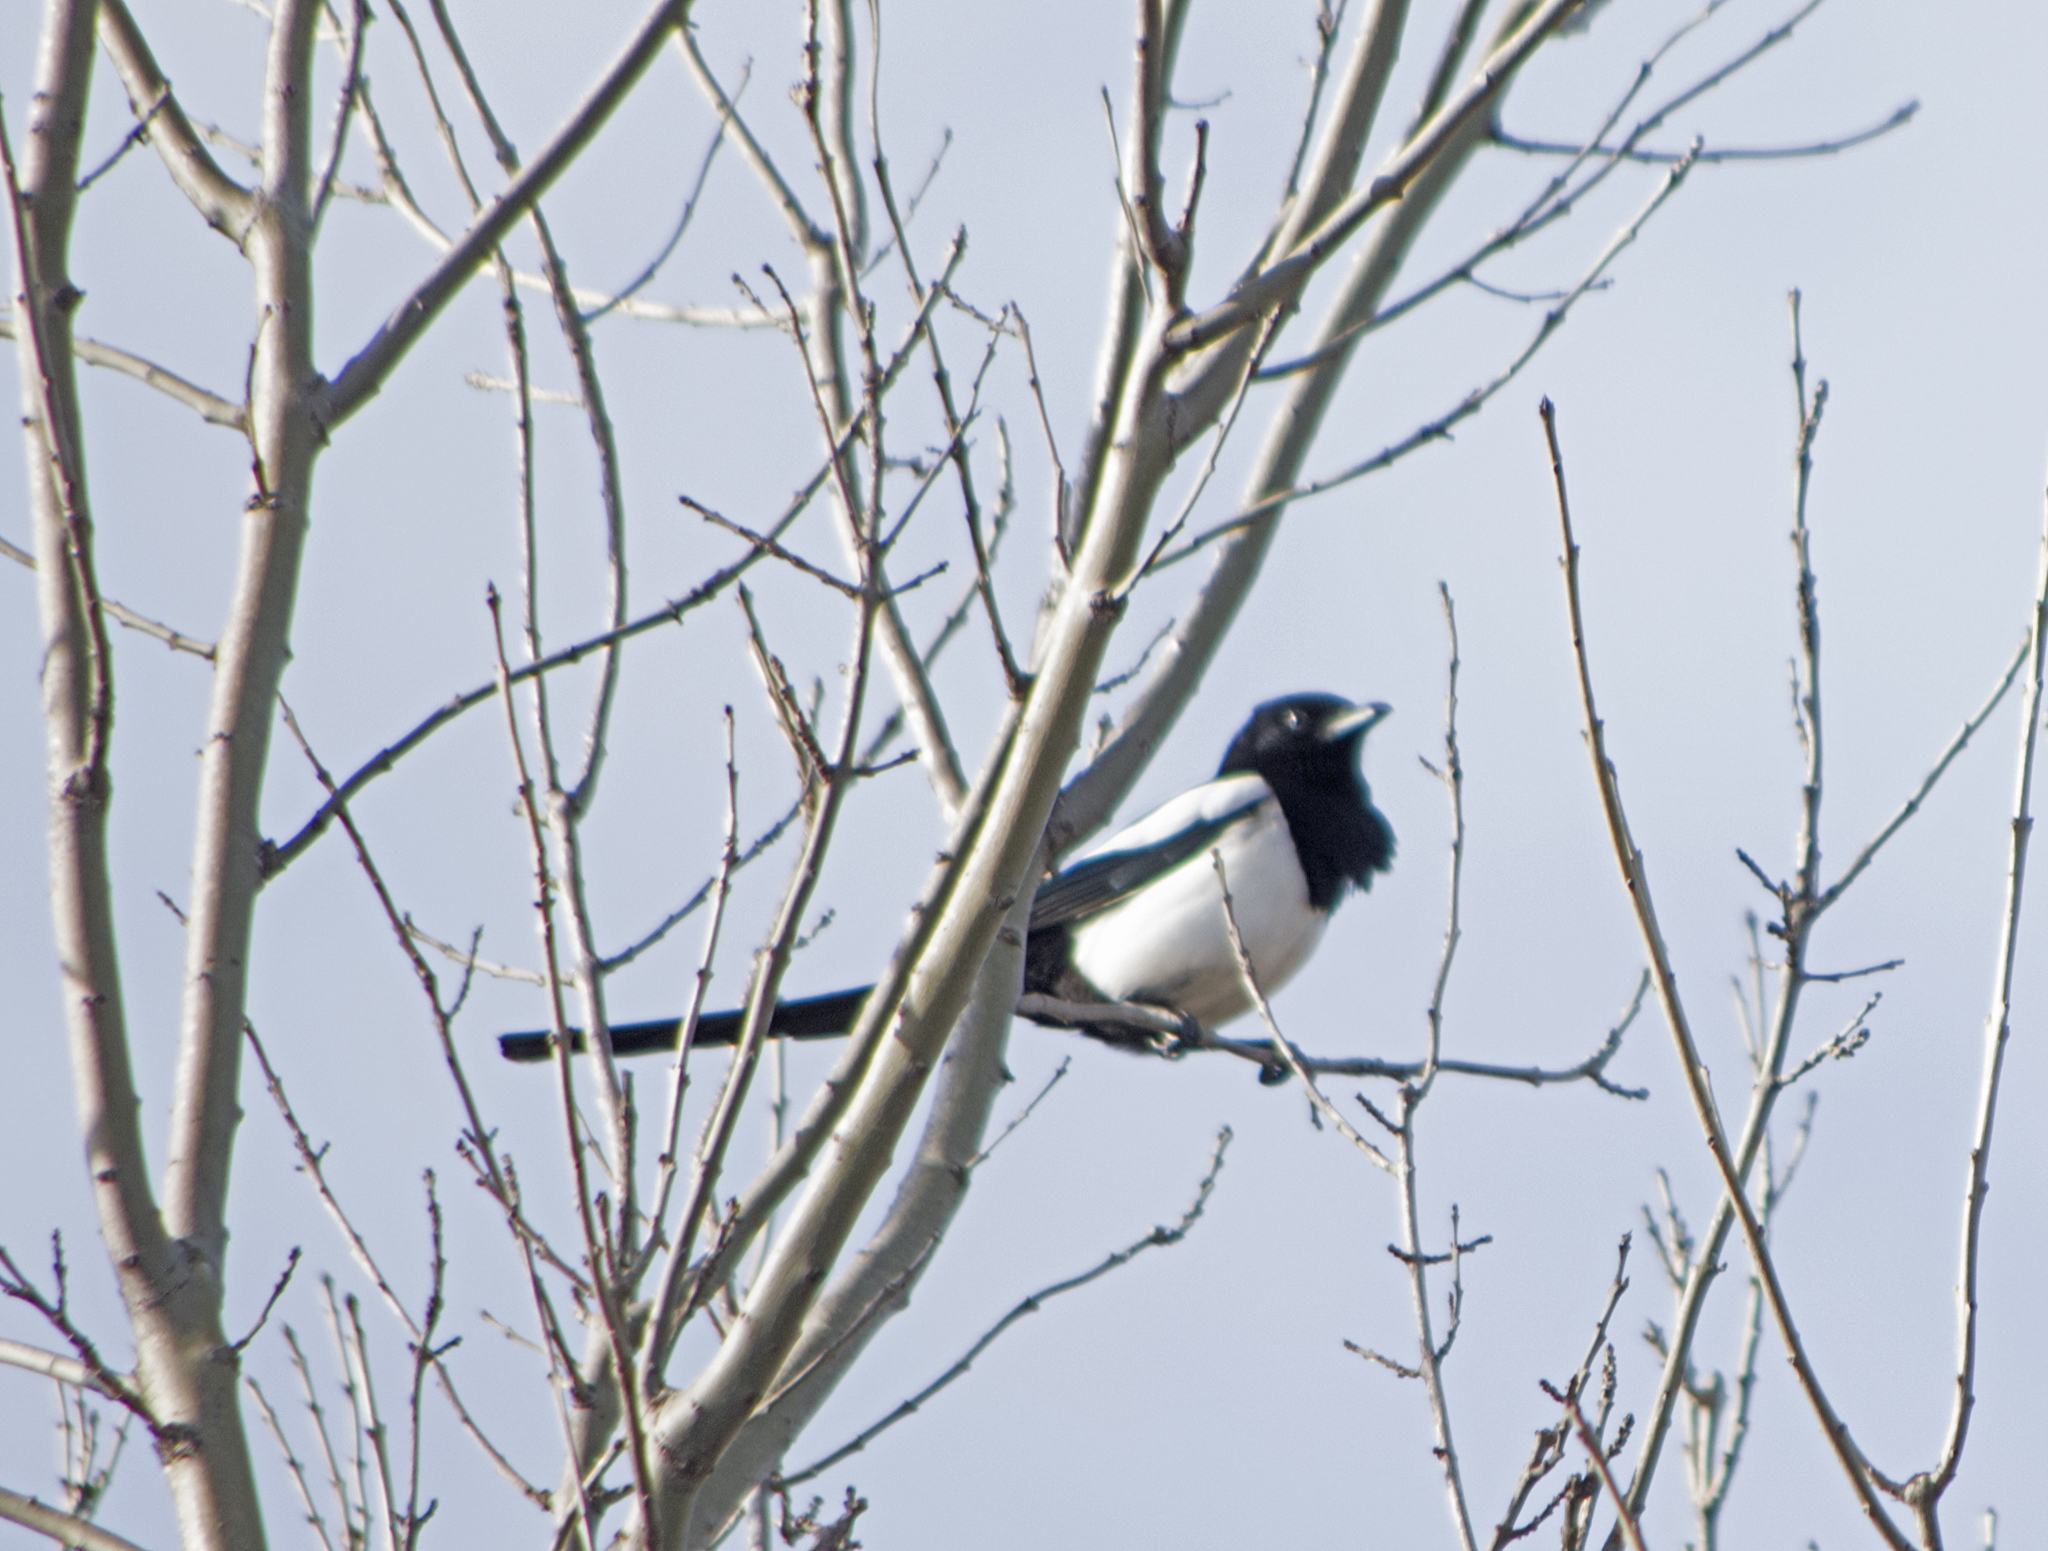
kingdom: Animalia
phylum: Chordata
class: Aves
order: Passeriformes
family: Corvidae
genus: Pica
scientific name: Pica pica
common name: Eurasian magpie
